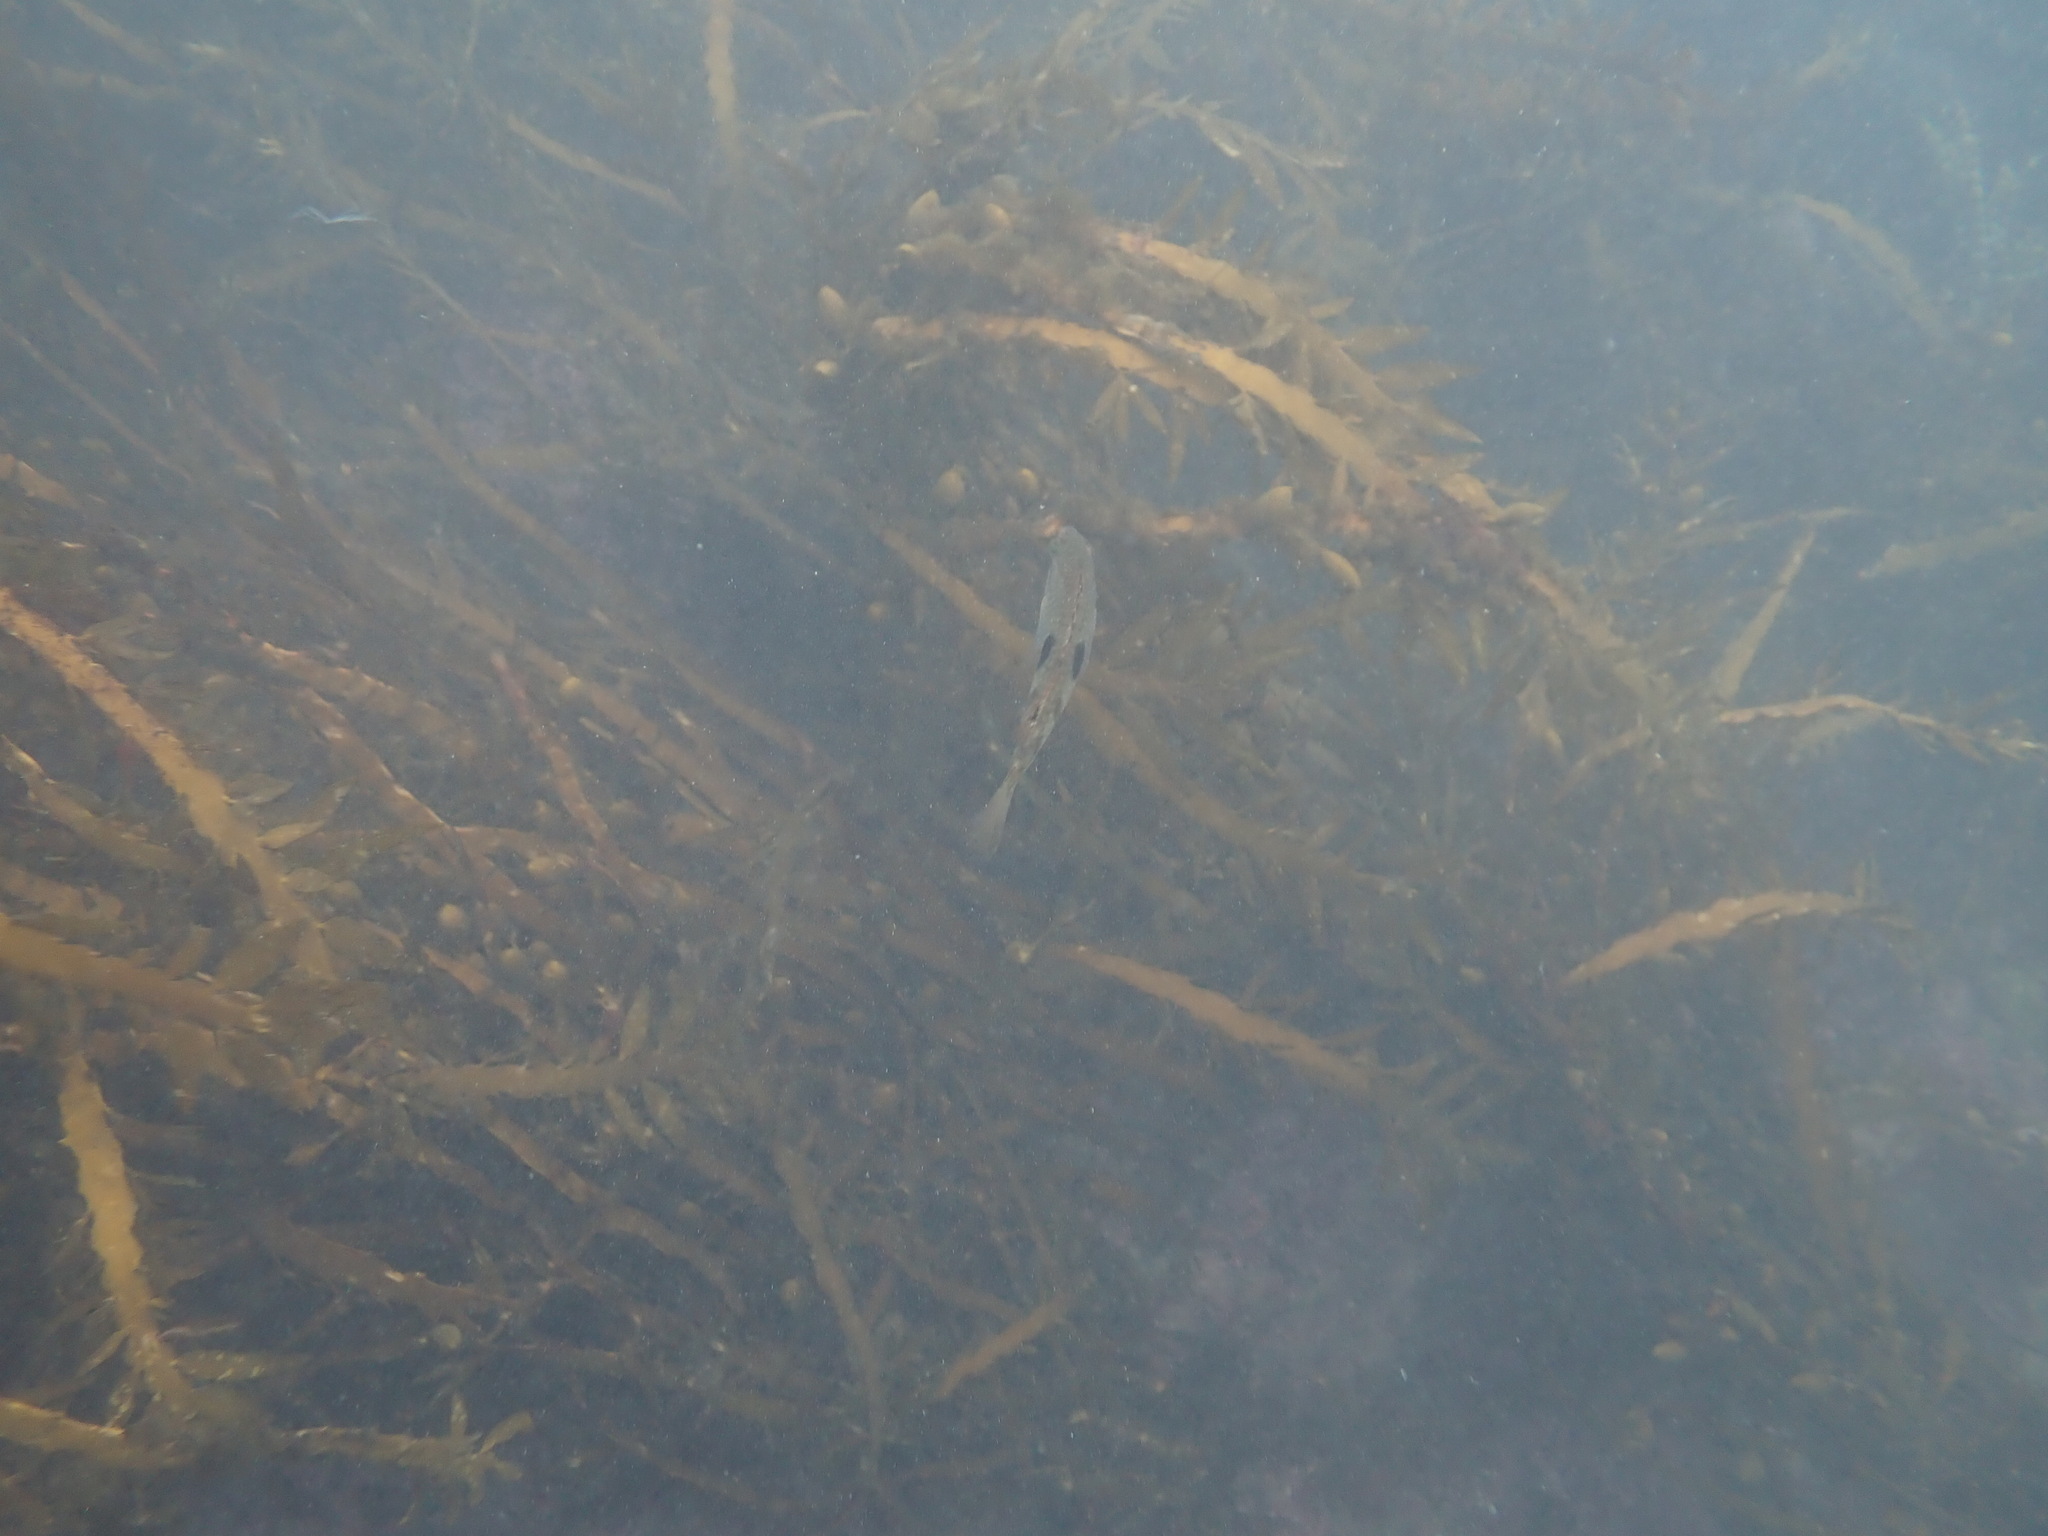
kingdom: Animalia
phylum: Chordata
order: Perciformes
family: Labridae
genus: Notolabrus
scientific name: Notolabrus celidotus
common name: Spotty
